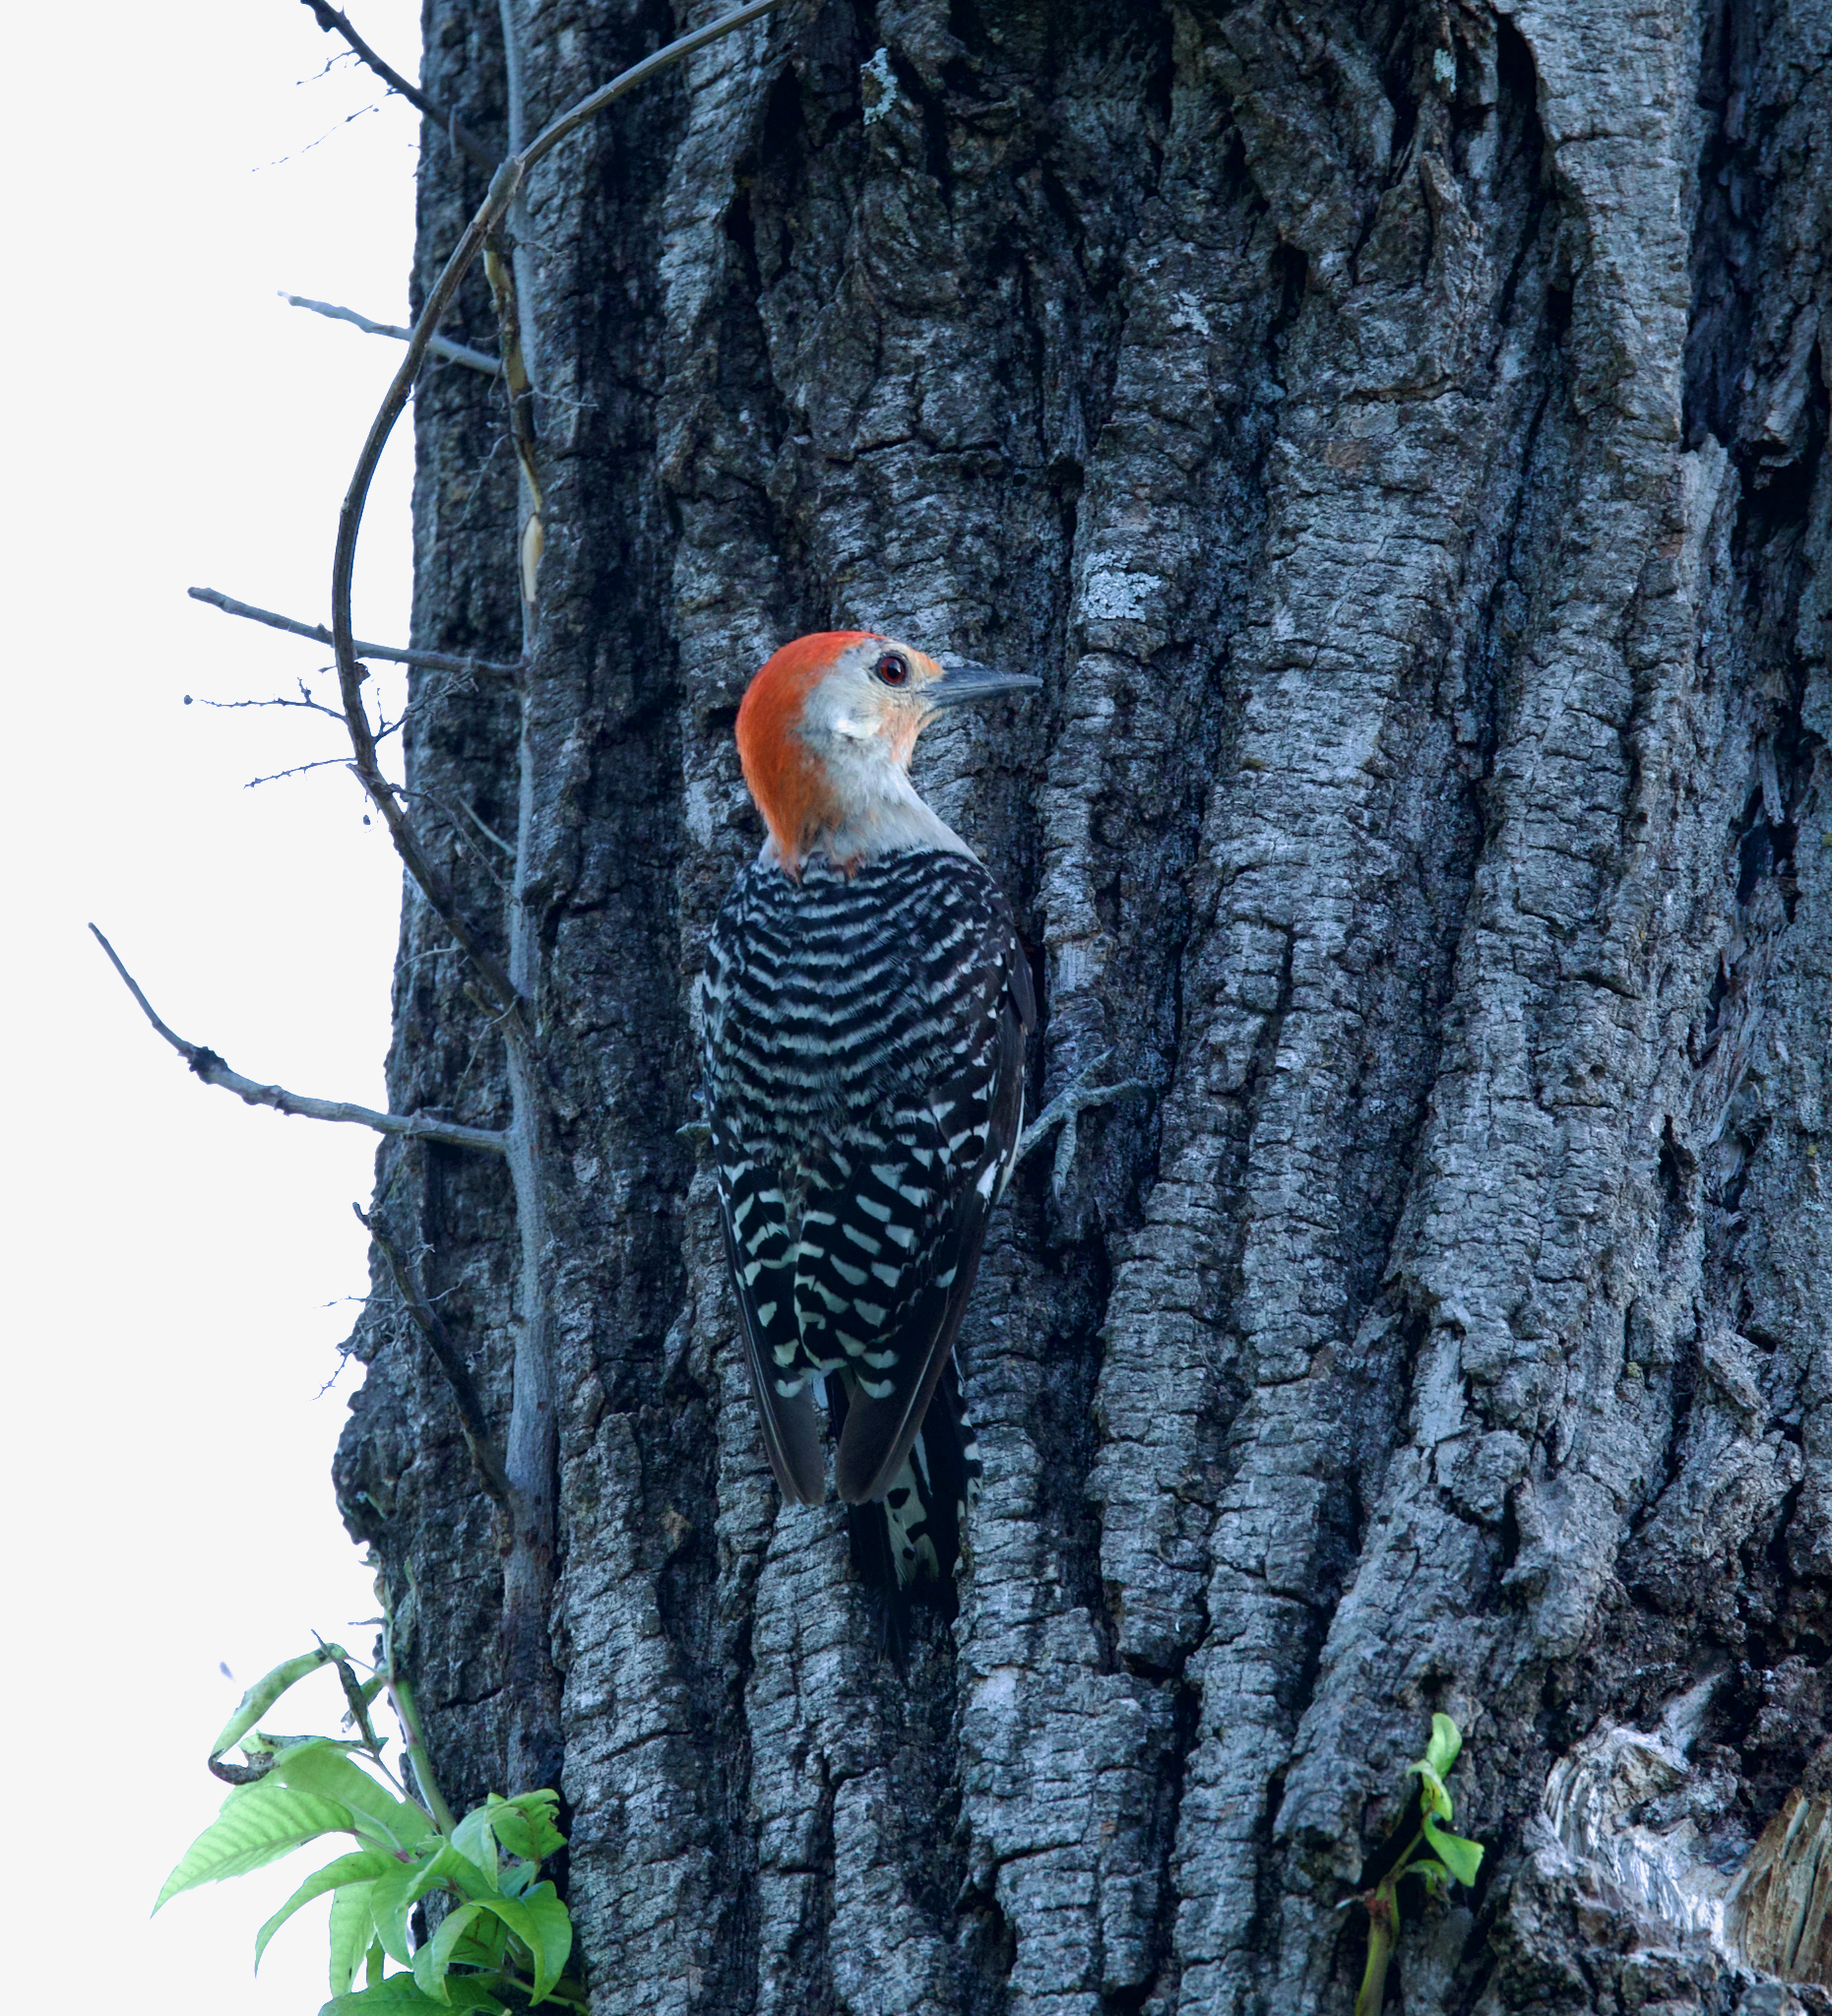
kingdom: Animalia
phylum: Chordata
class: Aves
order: Piciformes
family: Picidae
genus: Melanerpes
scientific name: Melanerpes carolinus
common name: Red-bellied woodpecker
